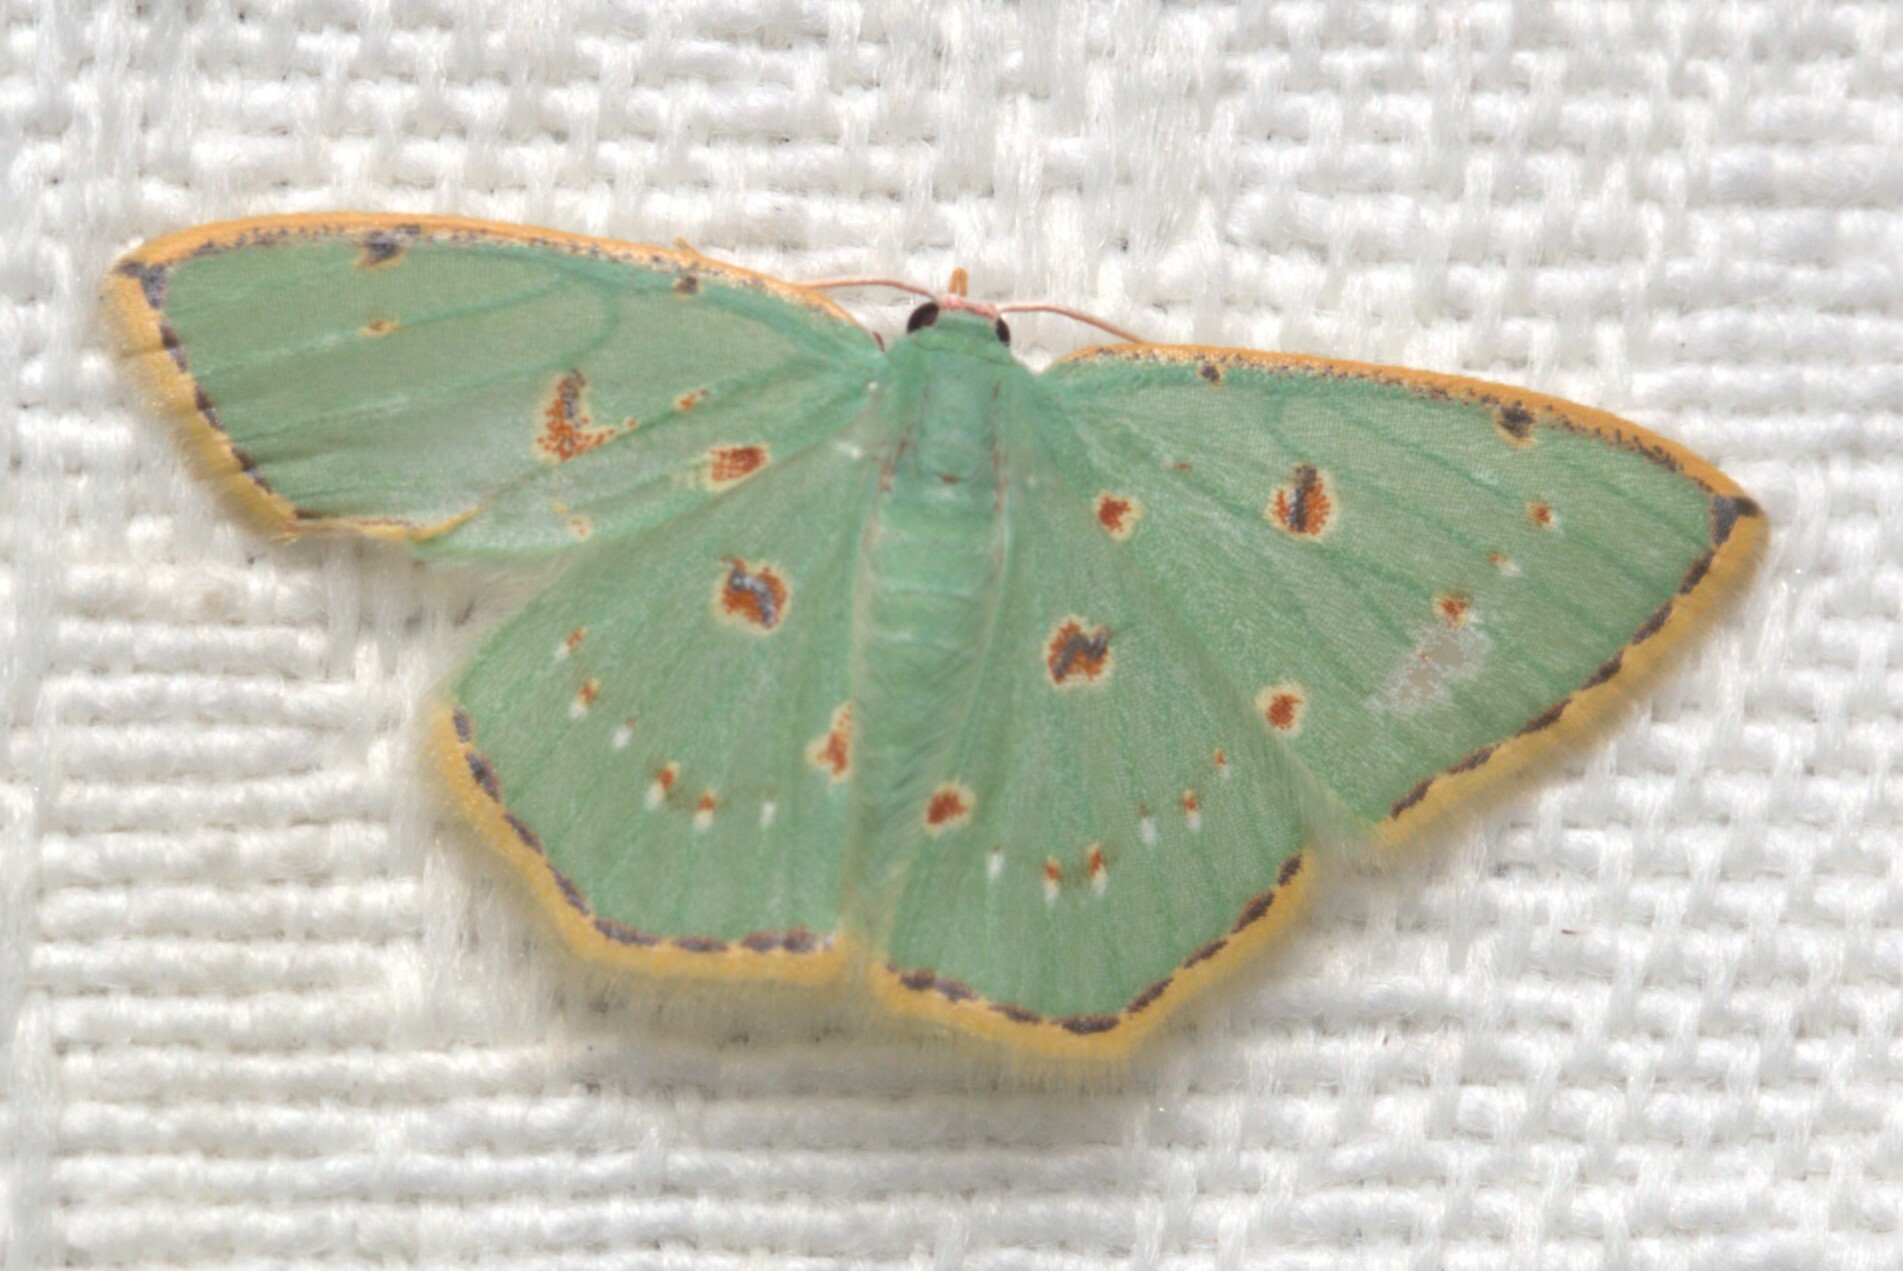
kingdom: Animalia
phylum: Arthropoda
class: Insecta
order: Lepidoptera
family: Geometridae
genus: Comostola
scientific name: Comostola laesaria
